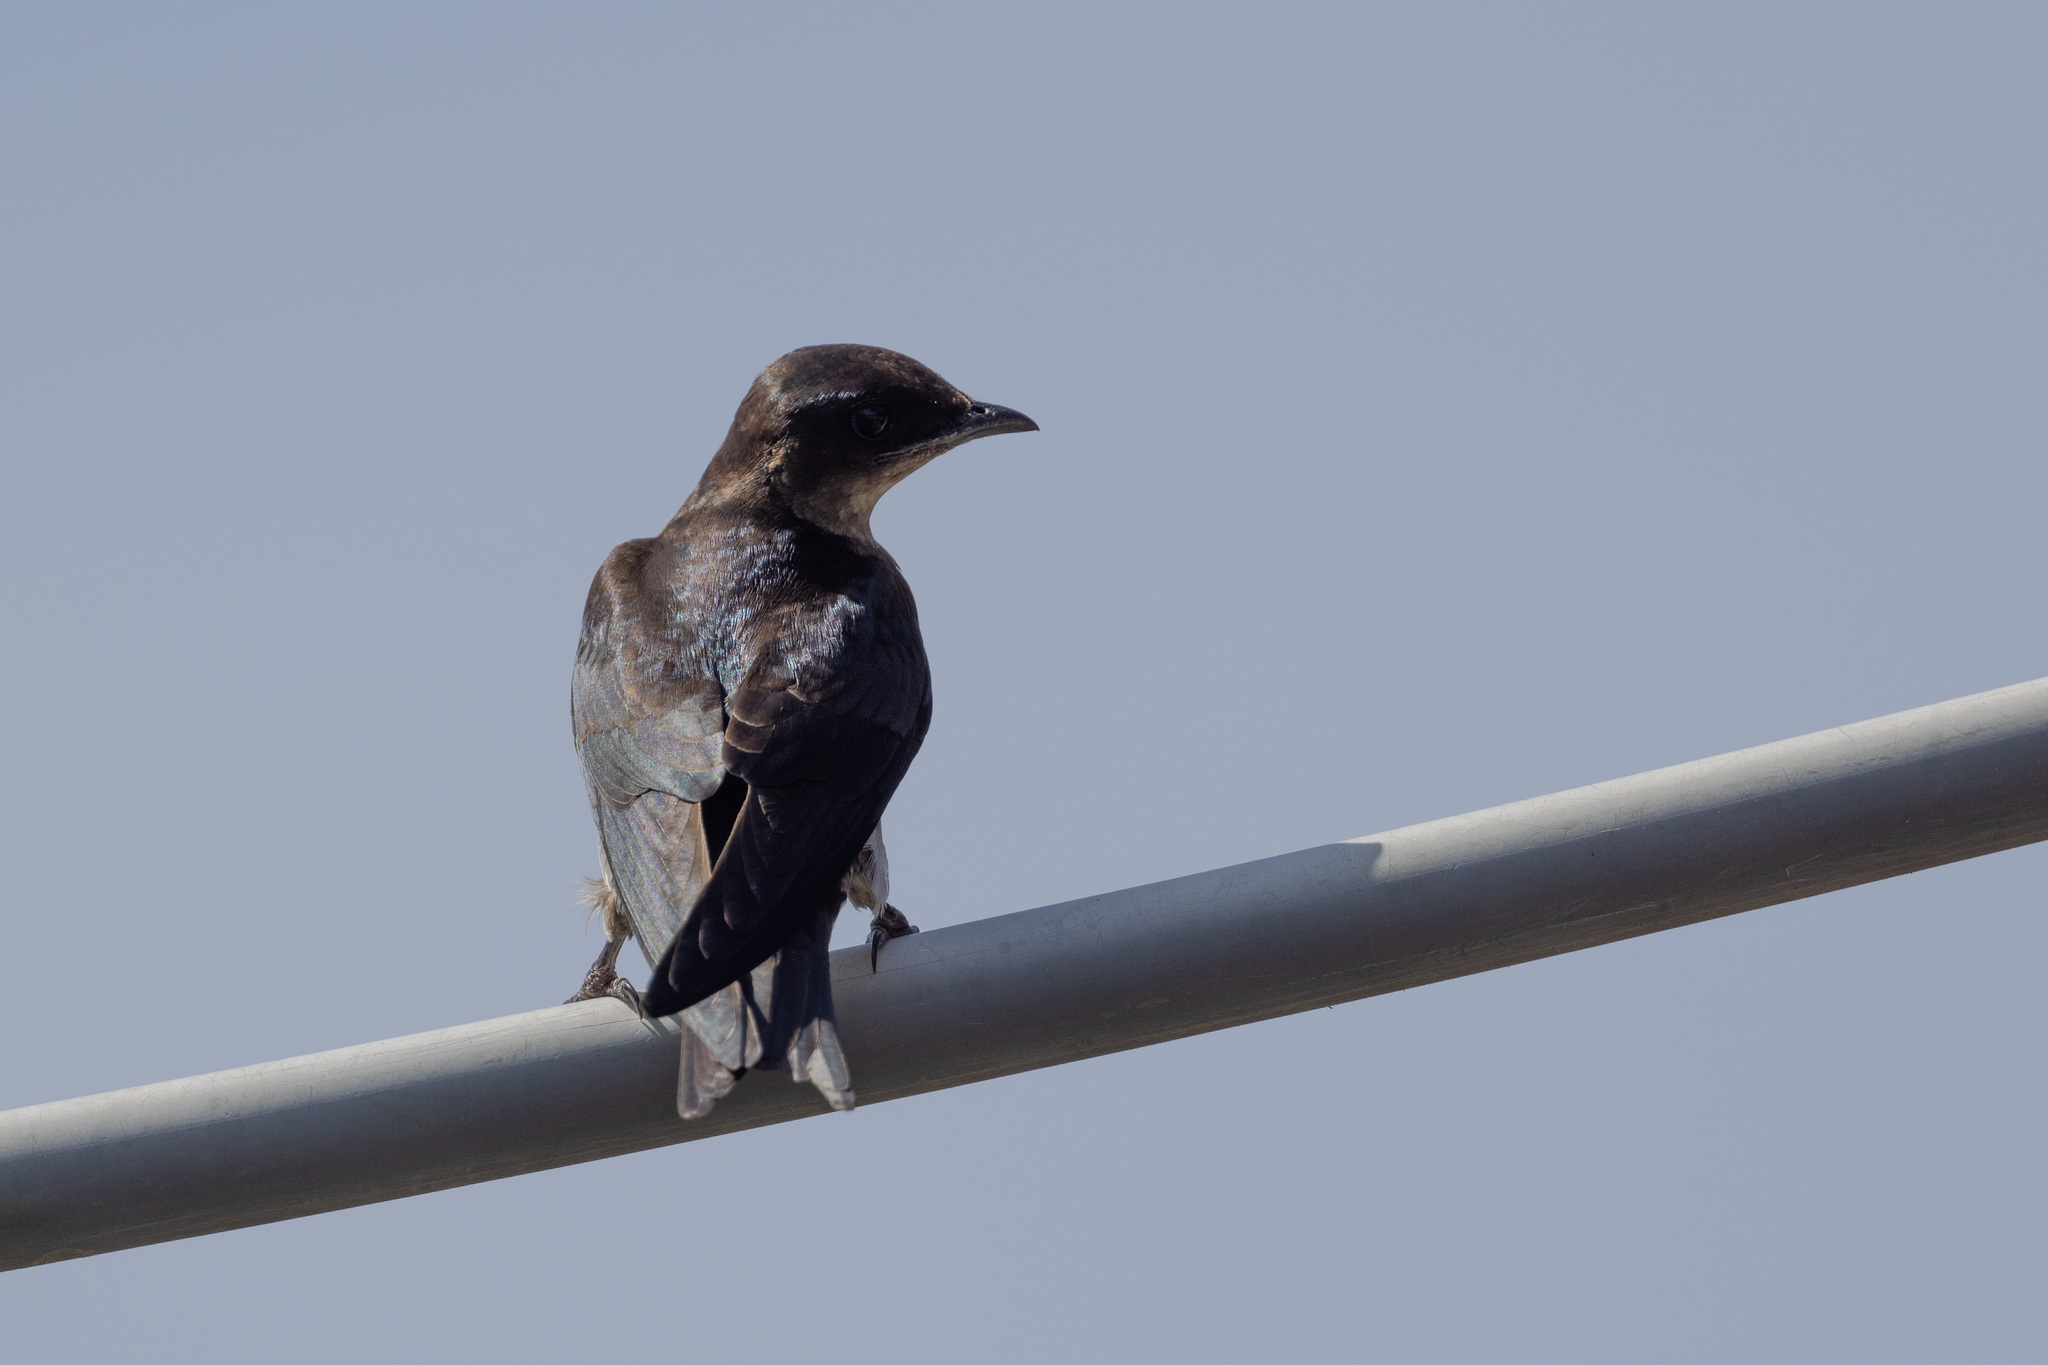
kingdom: Animalia
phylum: Chordata
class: Aves
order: Passeriformes
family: Hirundinidae
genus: Progne
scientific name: Progne chalybea
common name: Grey-breasted martin
